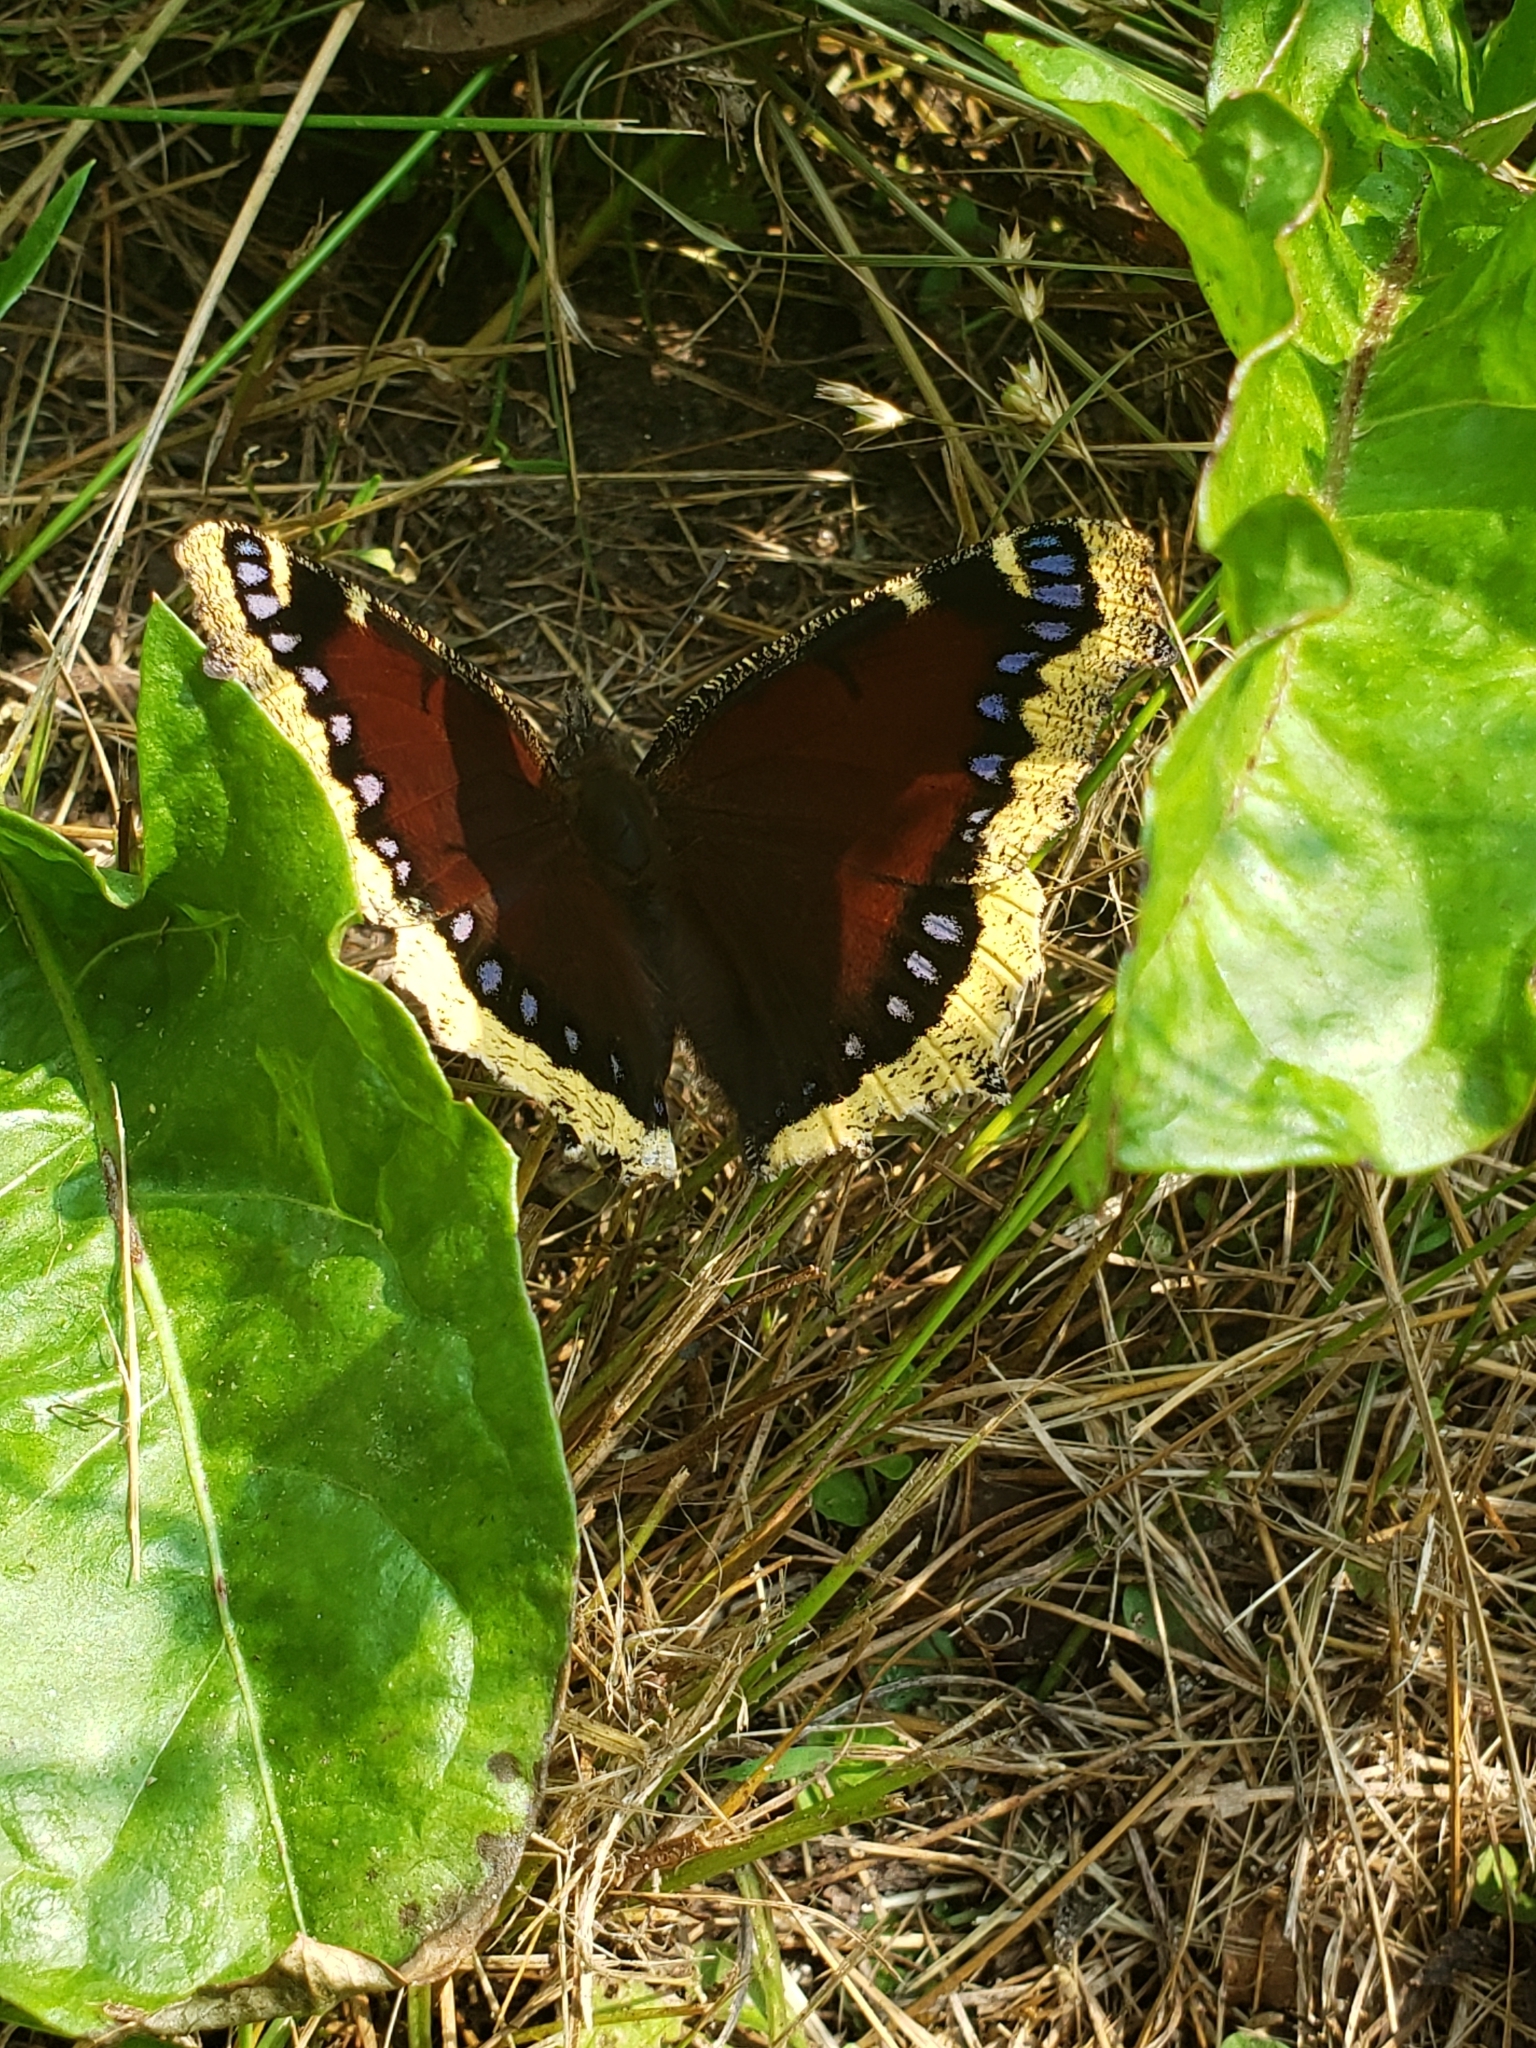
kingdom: Animalia
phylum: Arthropoda
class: Insecta
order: Lepidoptera
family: Nymphalidae
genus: Nymphalis
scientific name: Nymphalis antiopa
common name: Camberwell beauty
